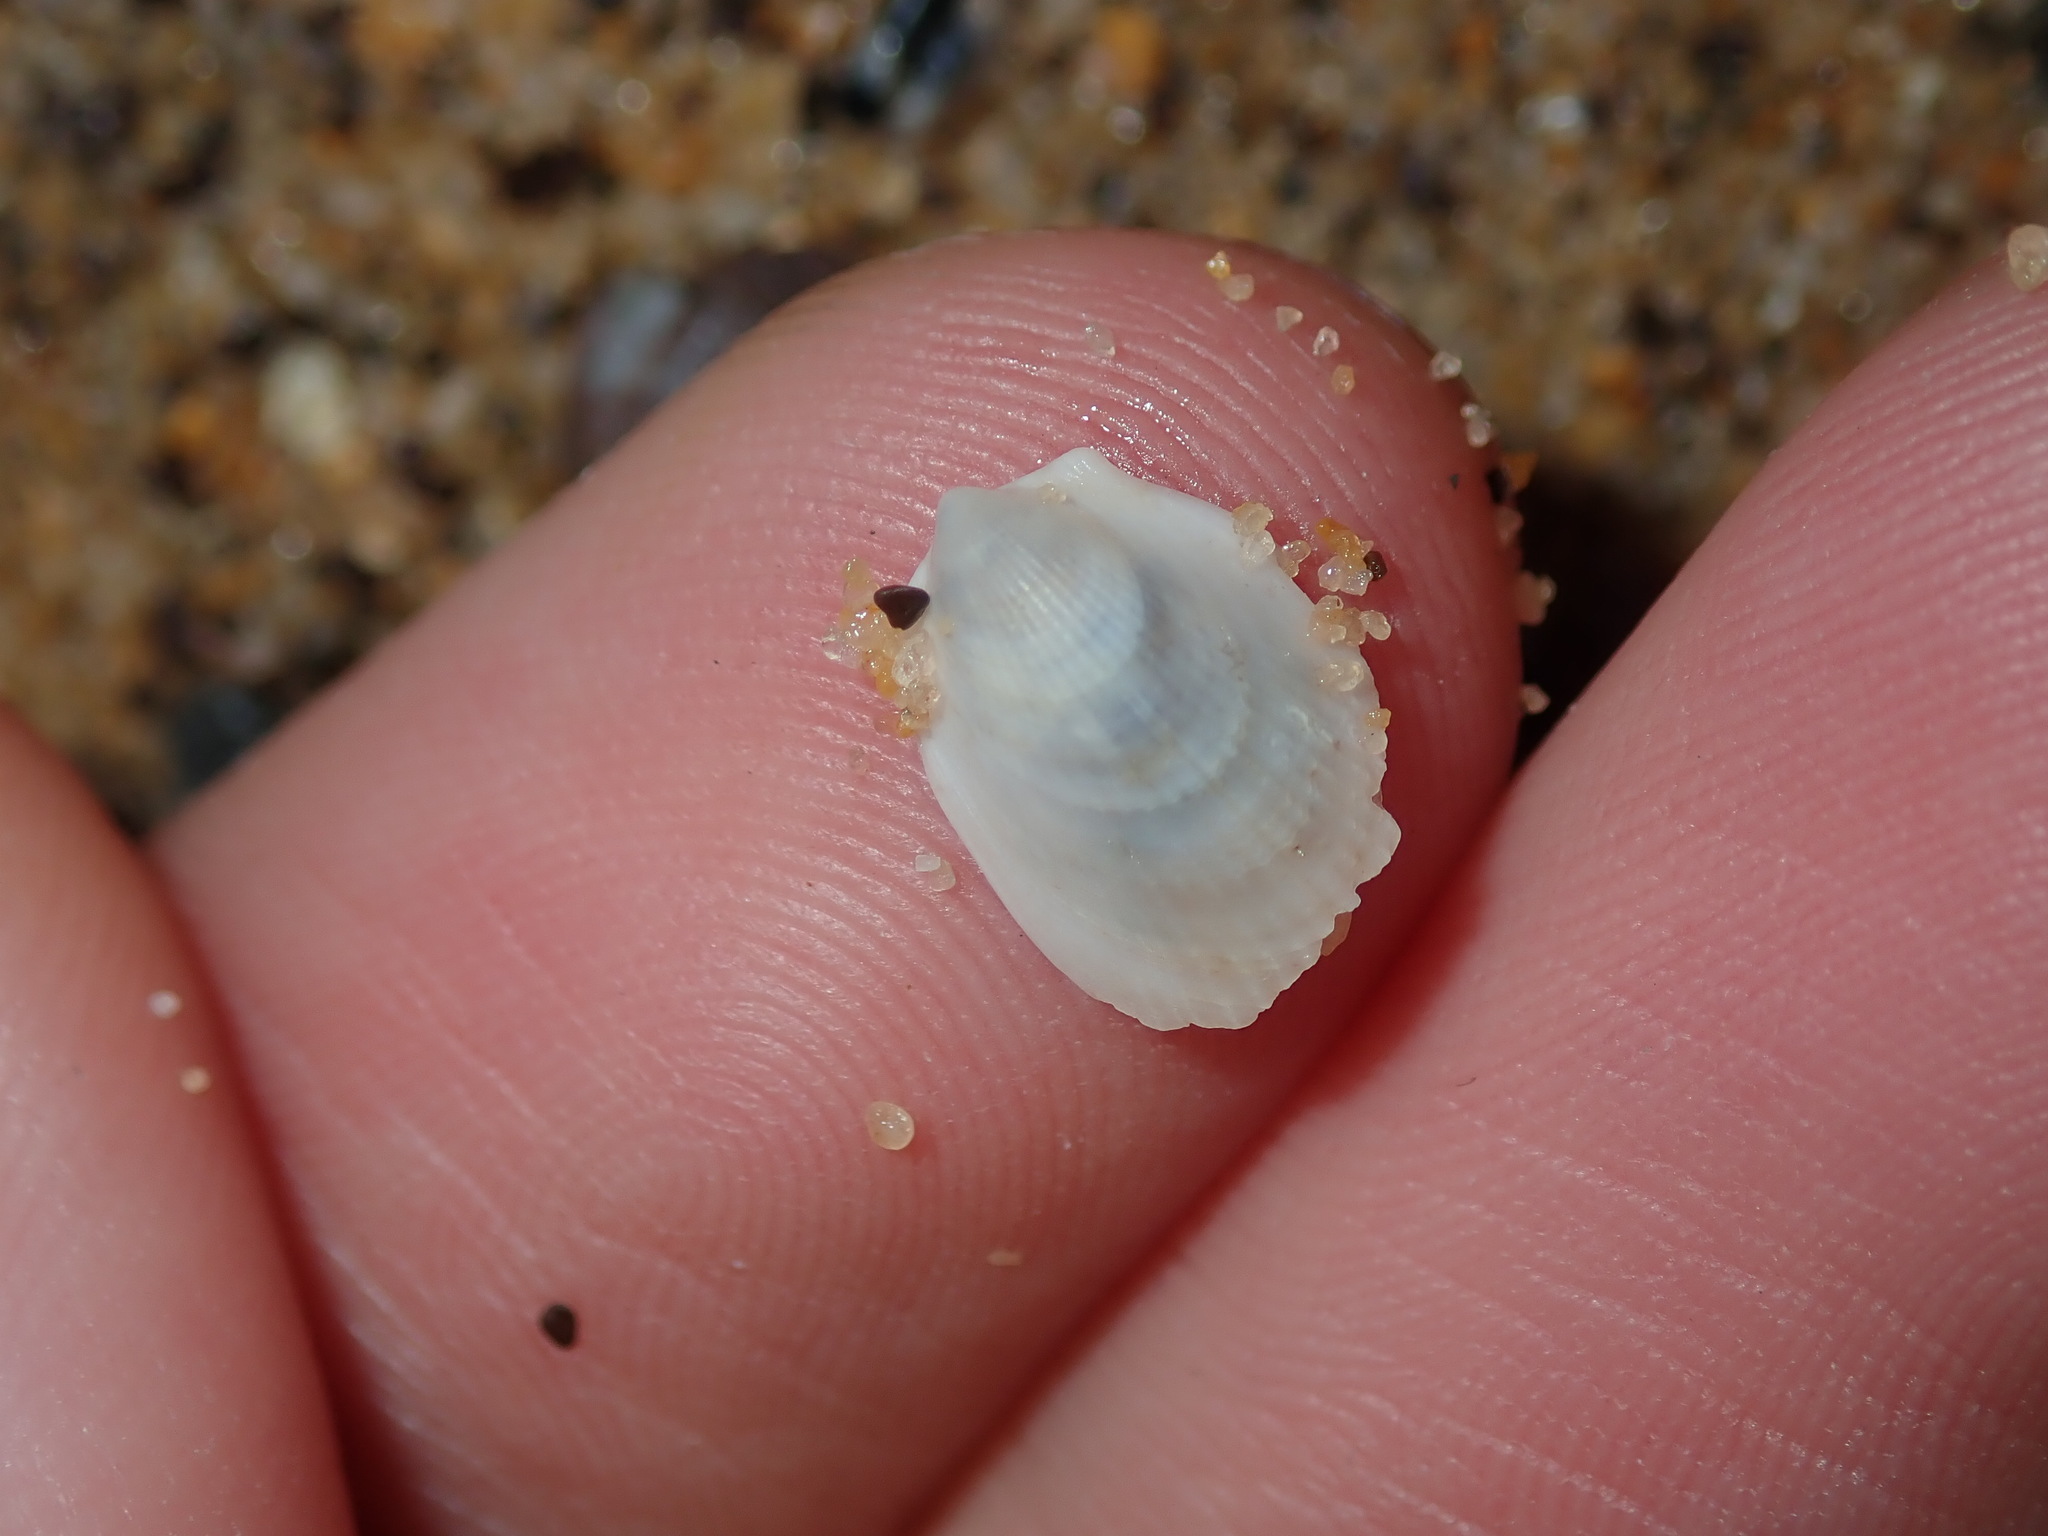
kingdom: Animalia
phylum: Mollusca
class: Bivalvia
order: Limida
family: Limidae
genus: Limatula
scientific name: Limatula strangei
